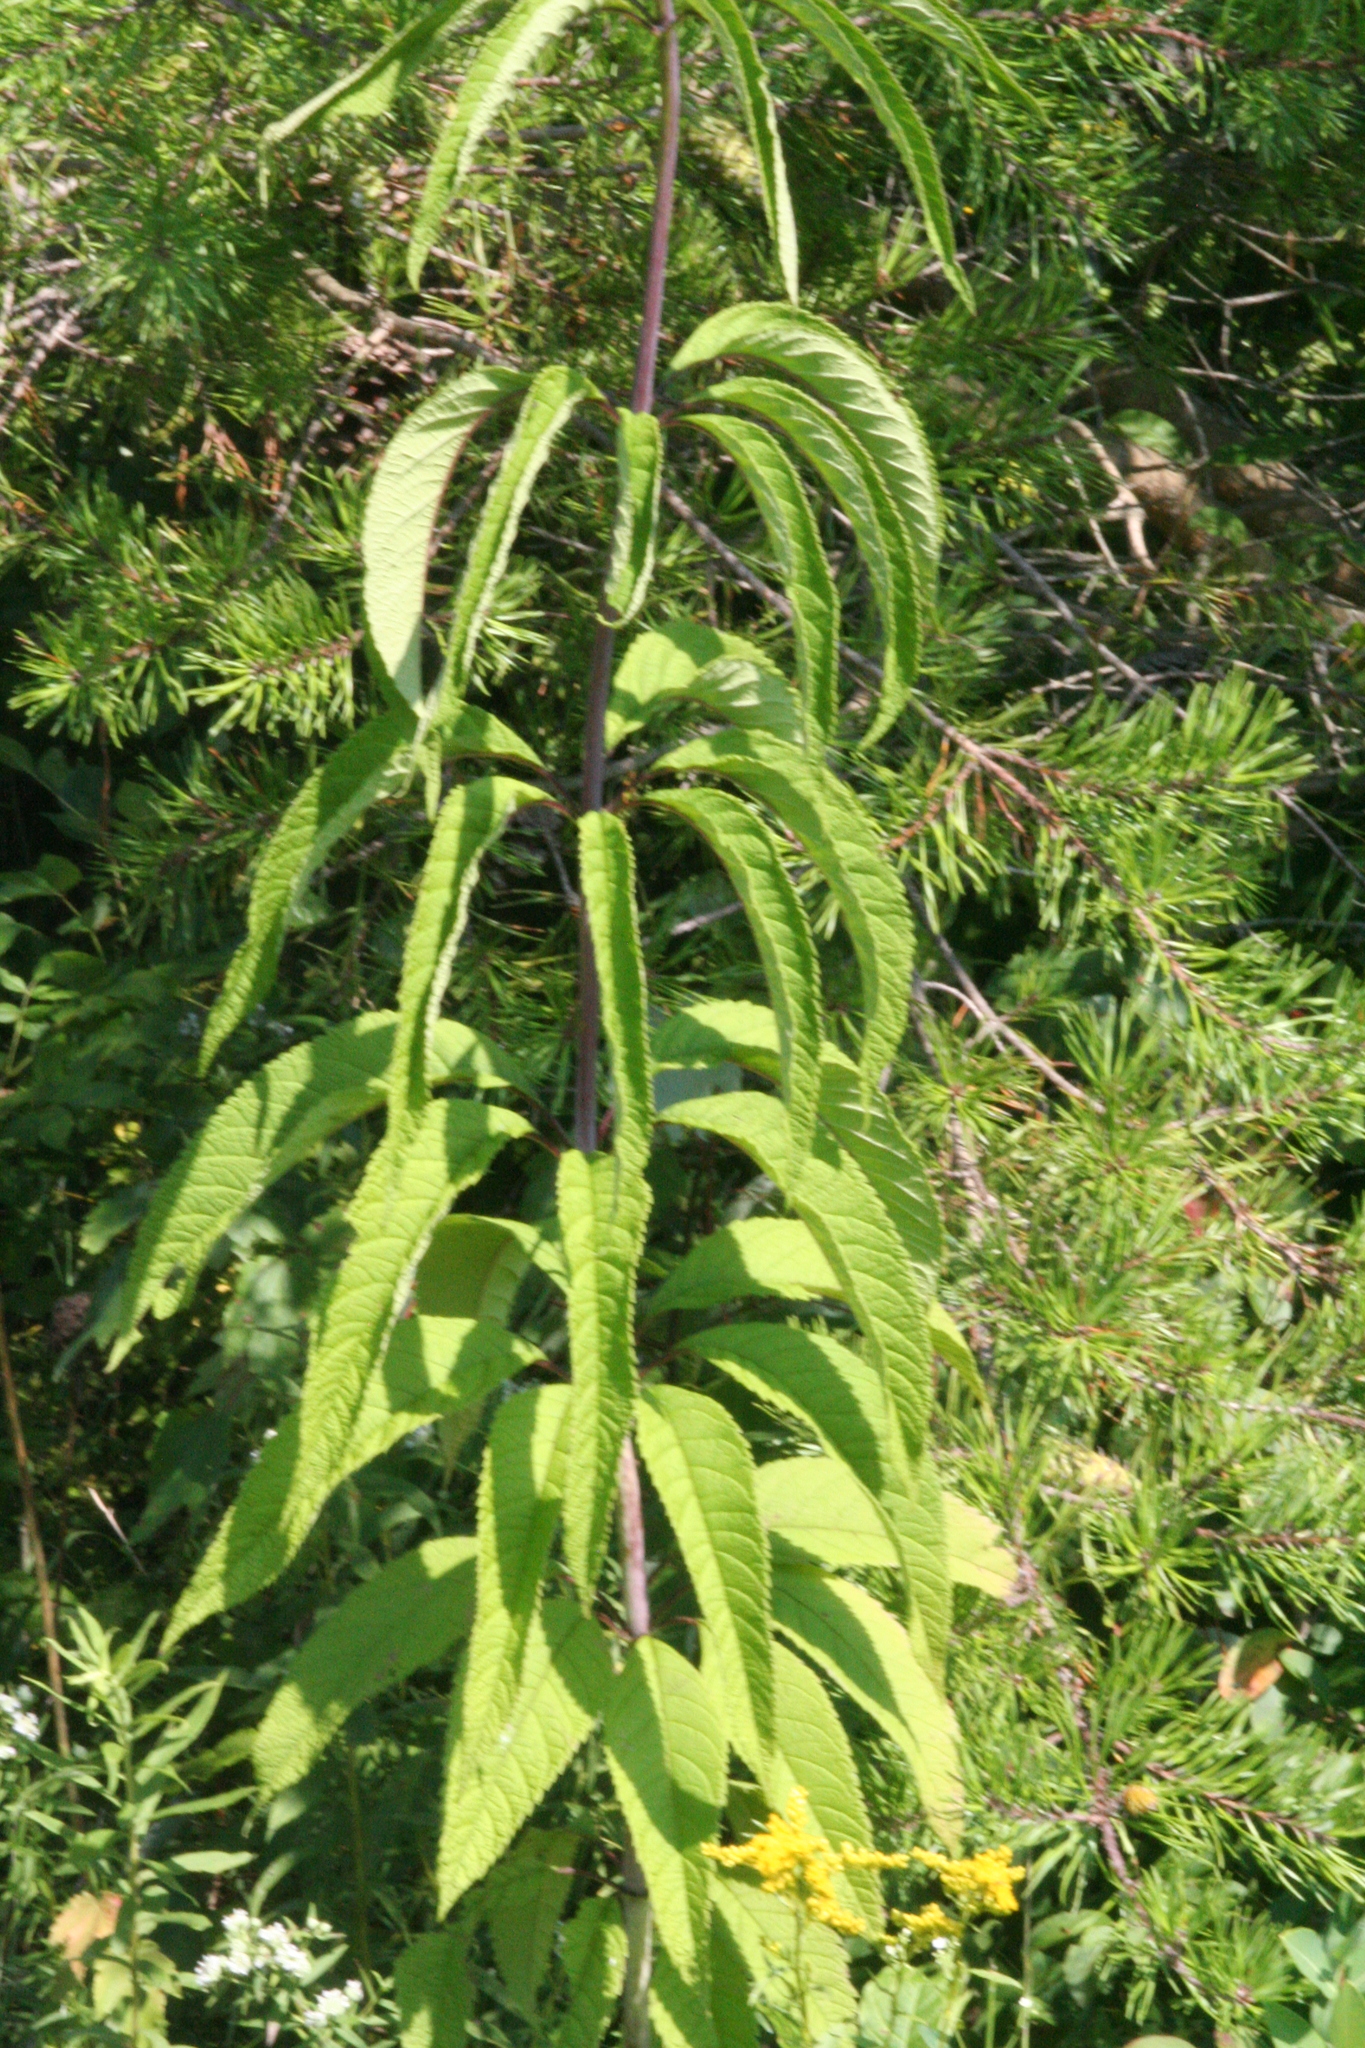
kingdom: Plantae
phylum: Tracheophyta
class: Magnoliopsida
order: Asterales
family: Asteraceae
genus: Eutrochium
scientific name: Eutrochium fistulosum
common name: Trumpetweed
